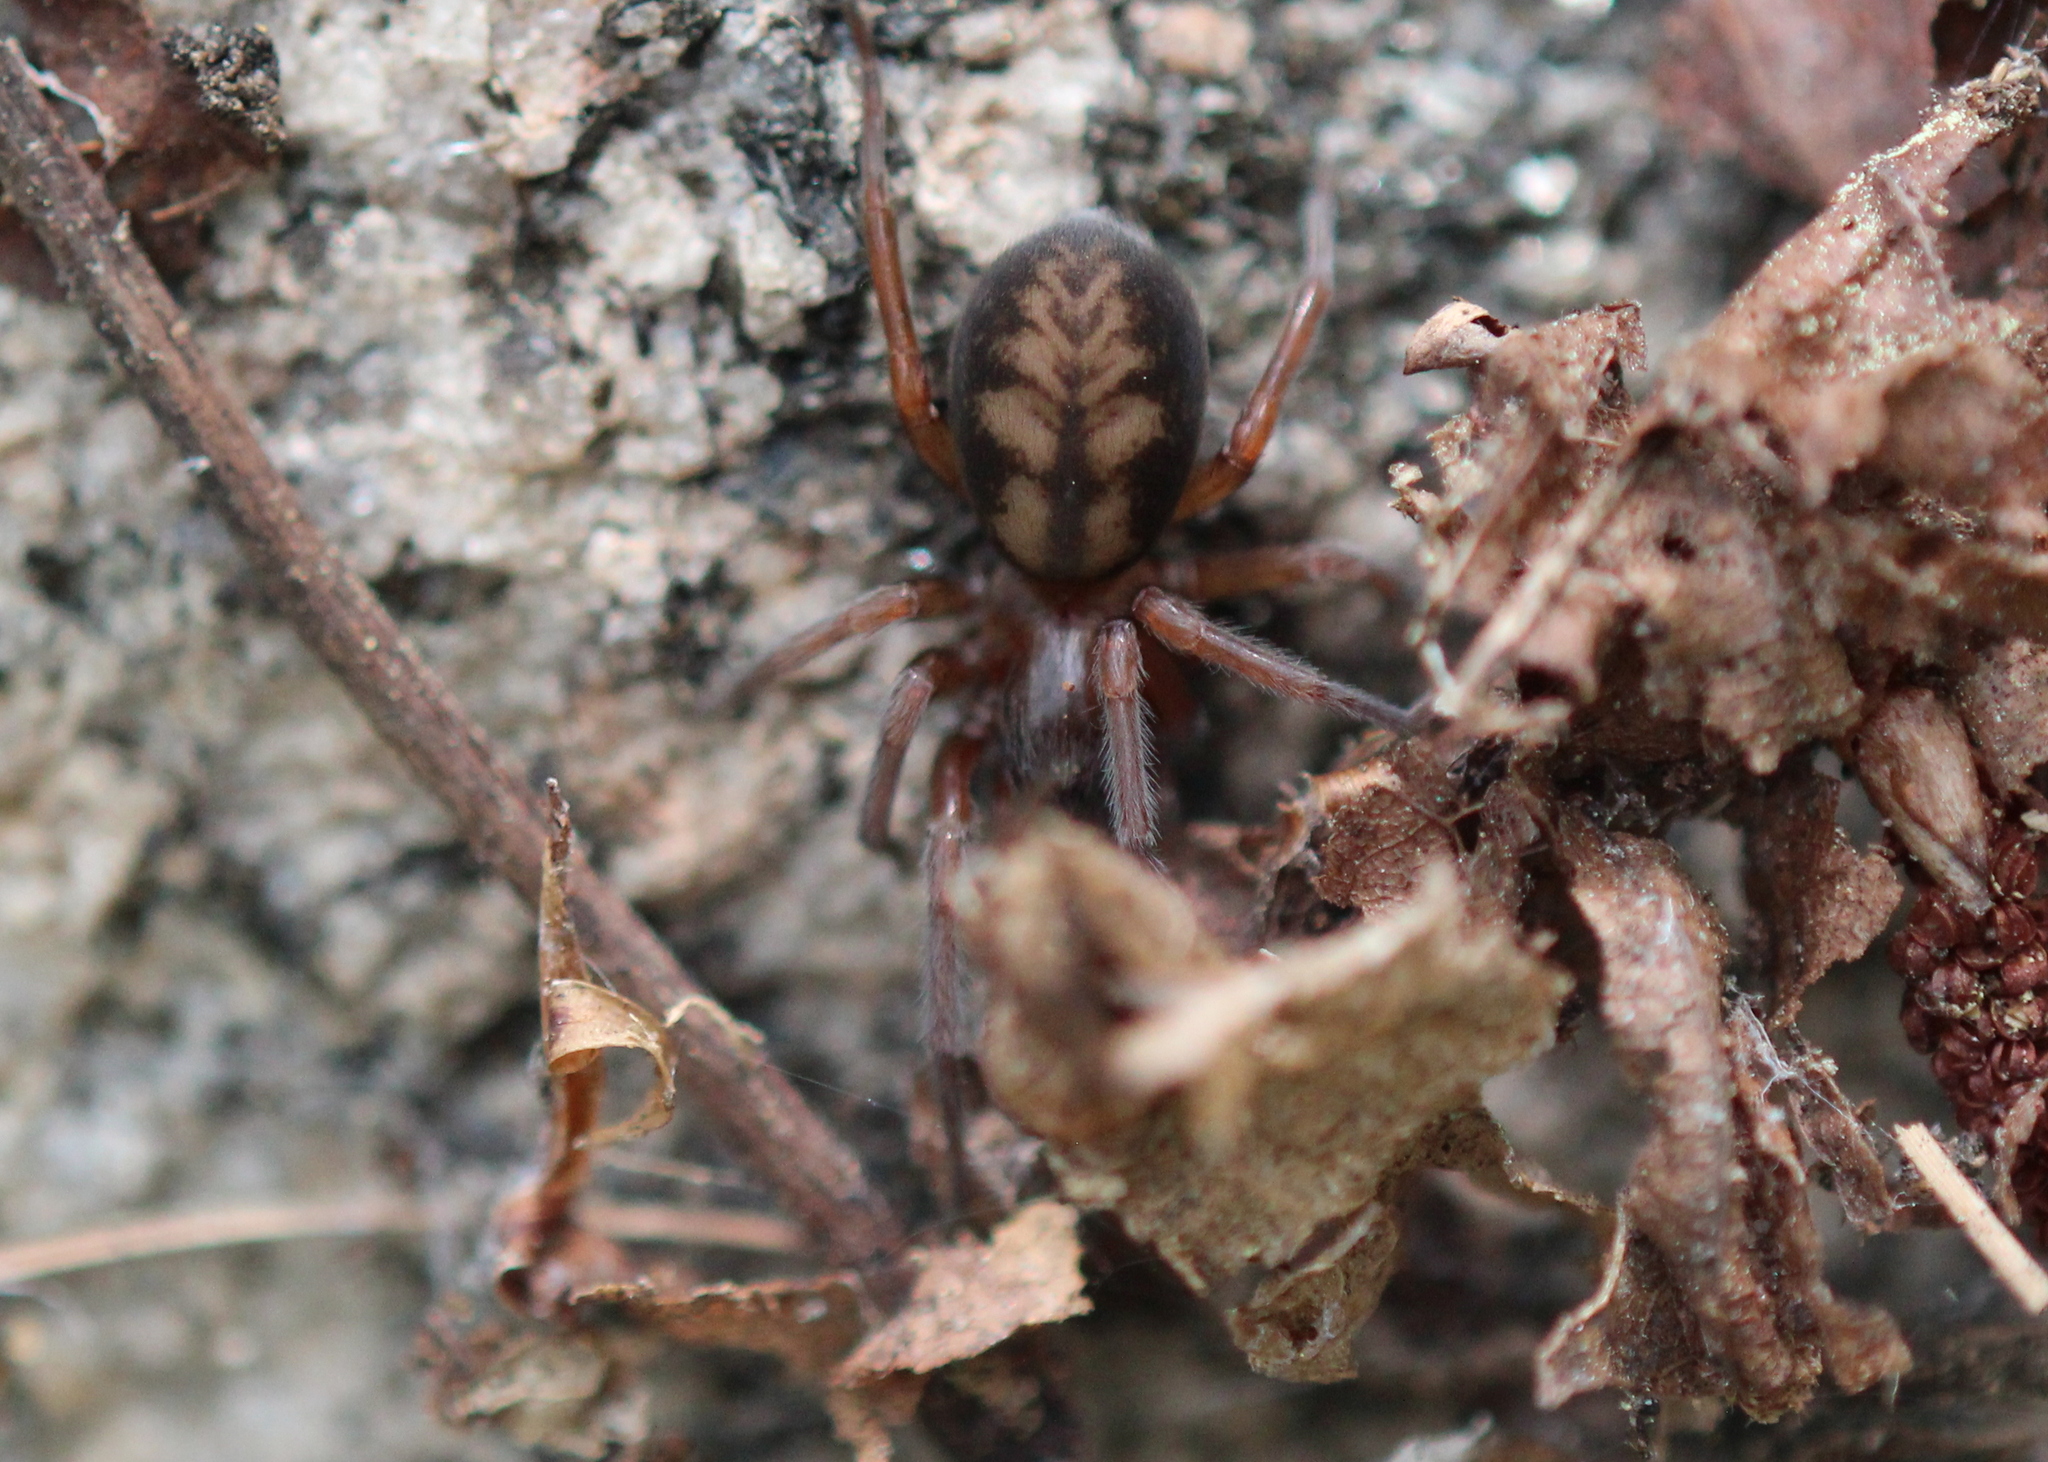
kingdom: Animalia
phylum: Arthropoda
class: Arachnida
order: Araneae
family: Amaurobiidae
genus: Callobius
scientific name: Callobius bennetti
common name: Bennett's laceweaver
